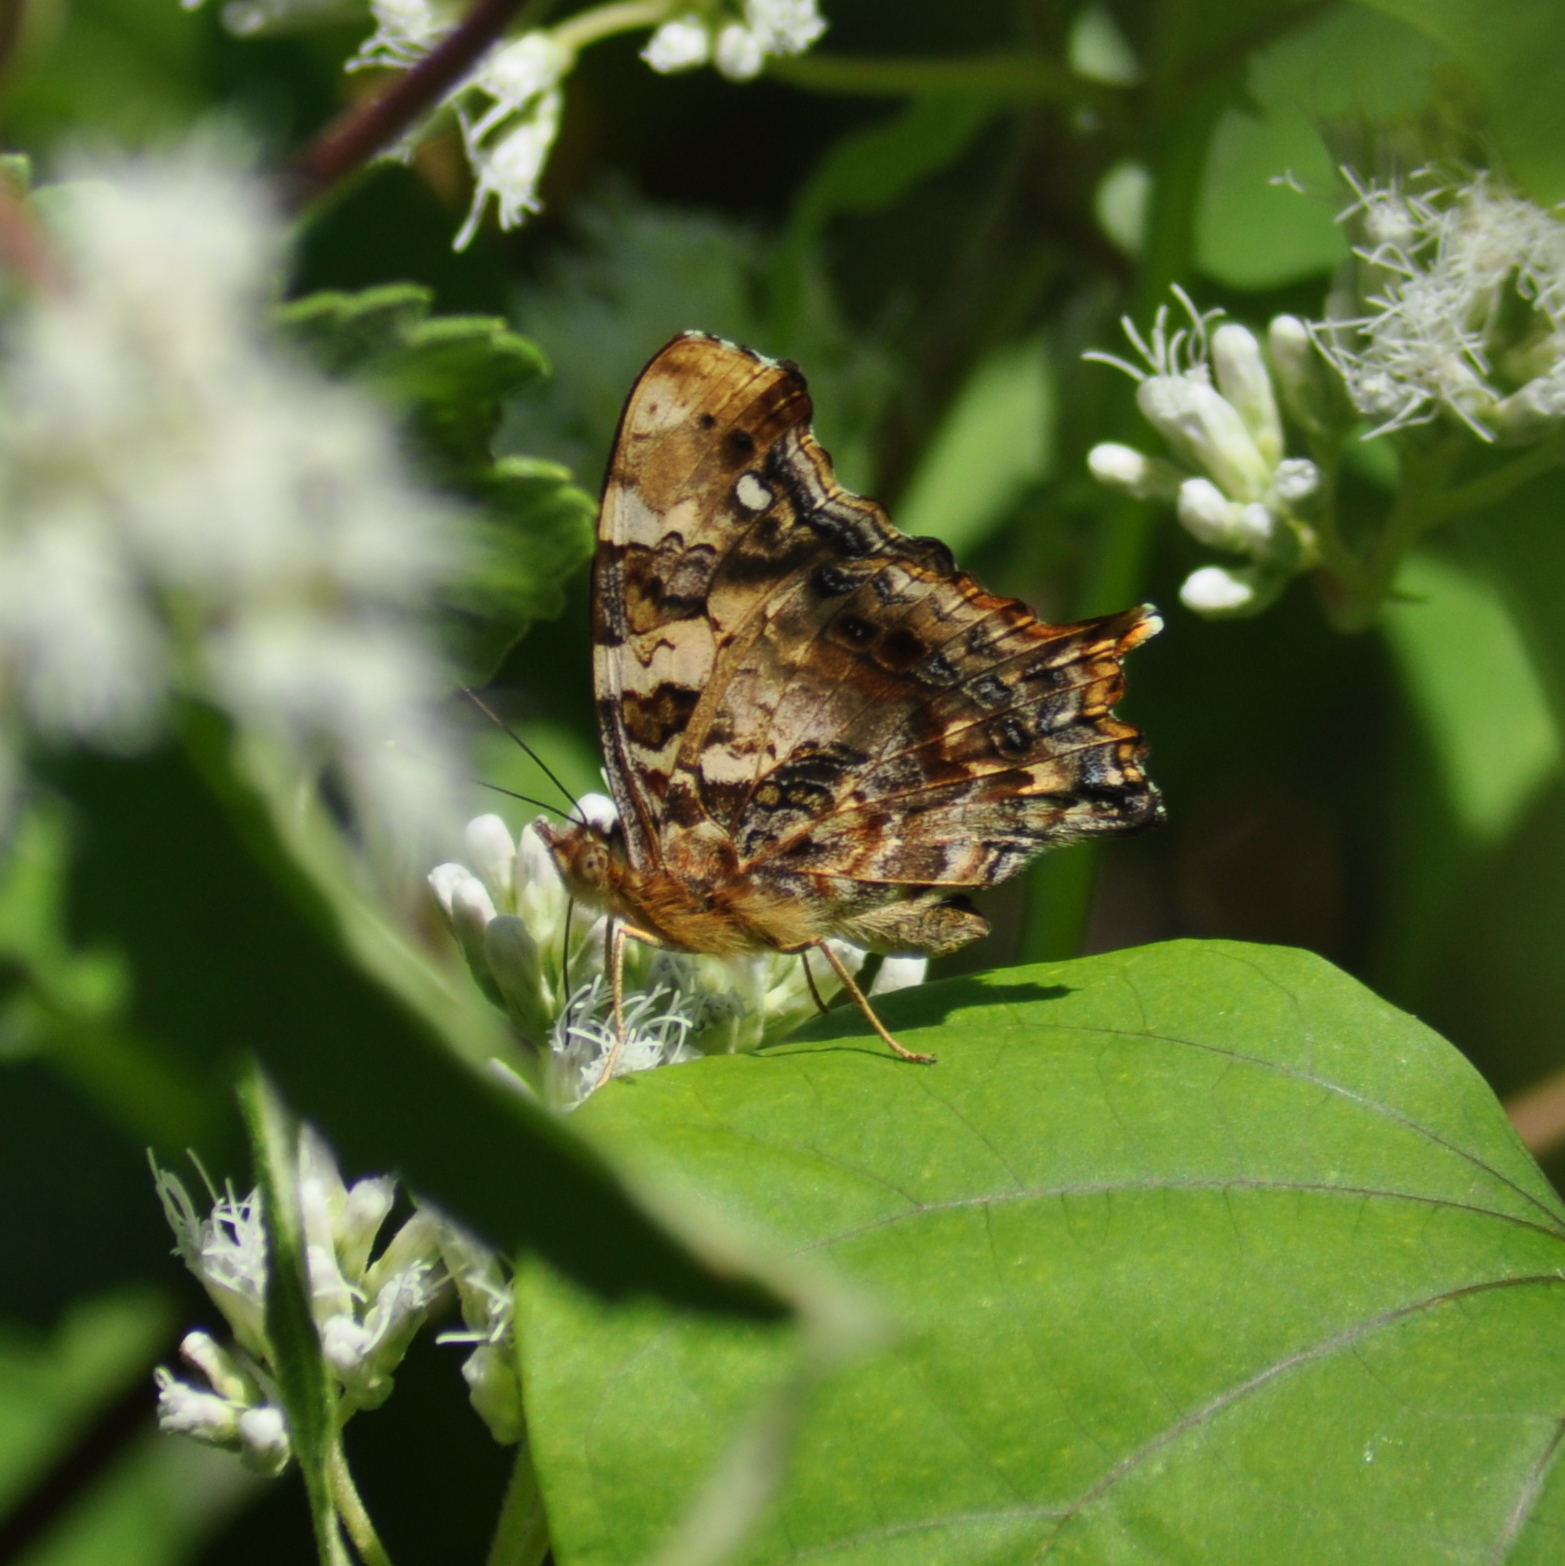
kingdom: Animalia
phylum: Arthropoda
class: Insecta
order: Lepidoptera
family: Nymphalidae
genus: Hypanartia
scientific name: Hypanartia bella
